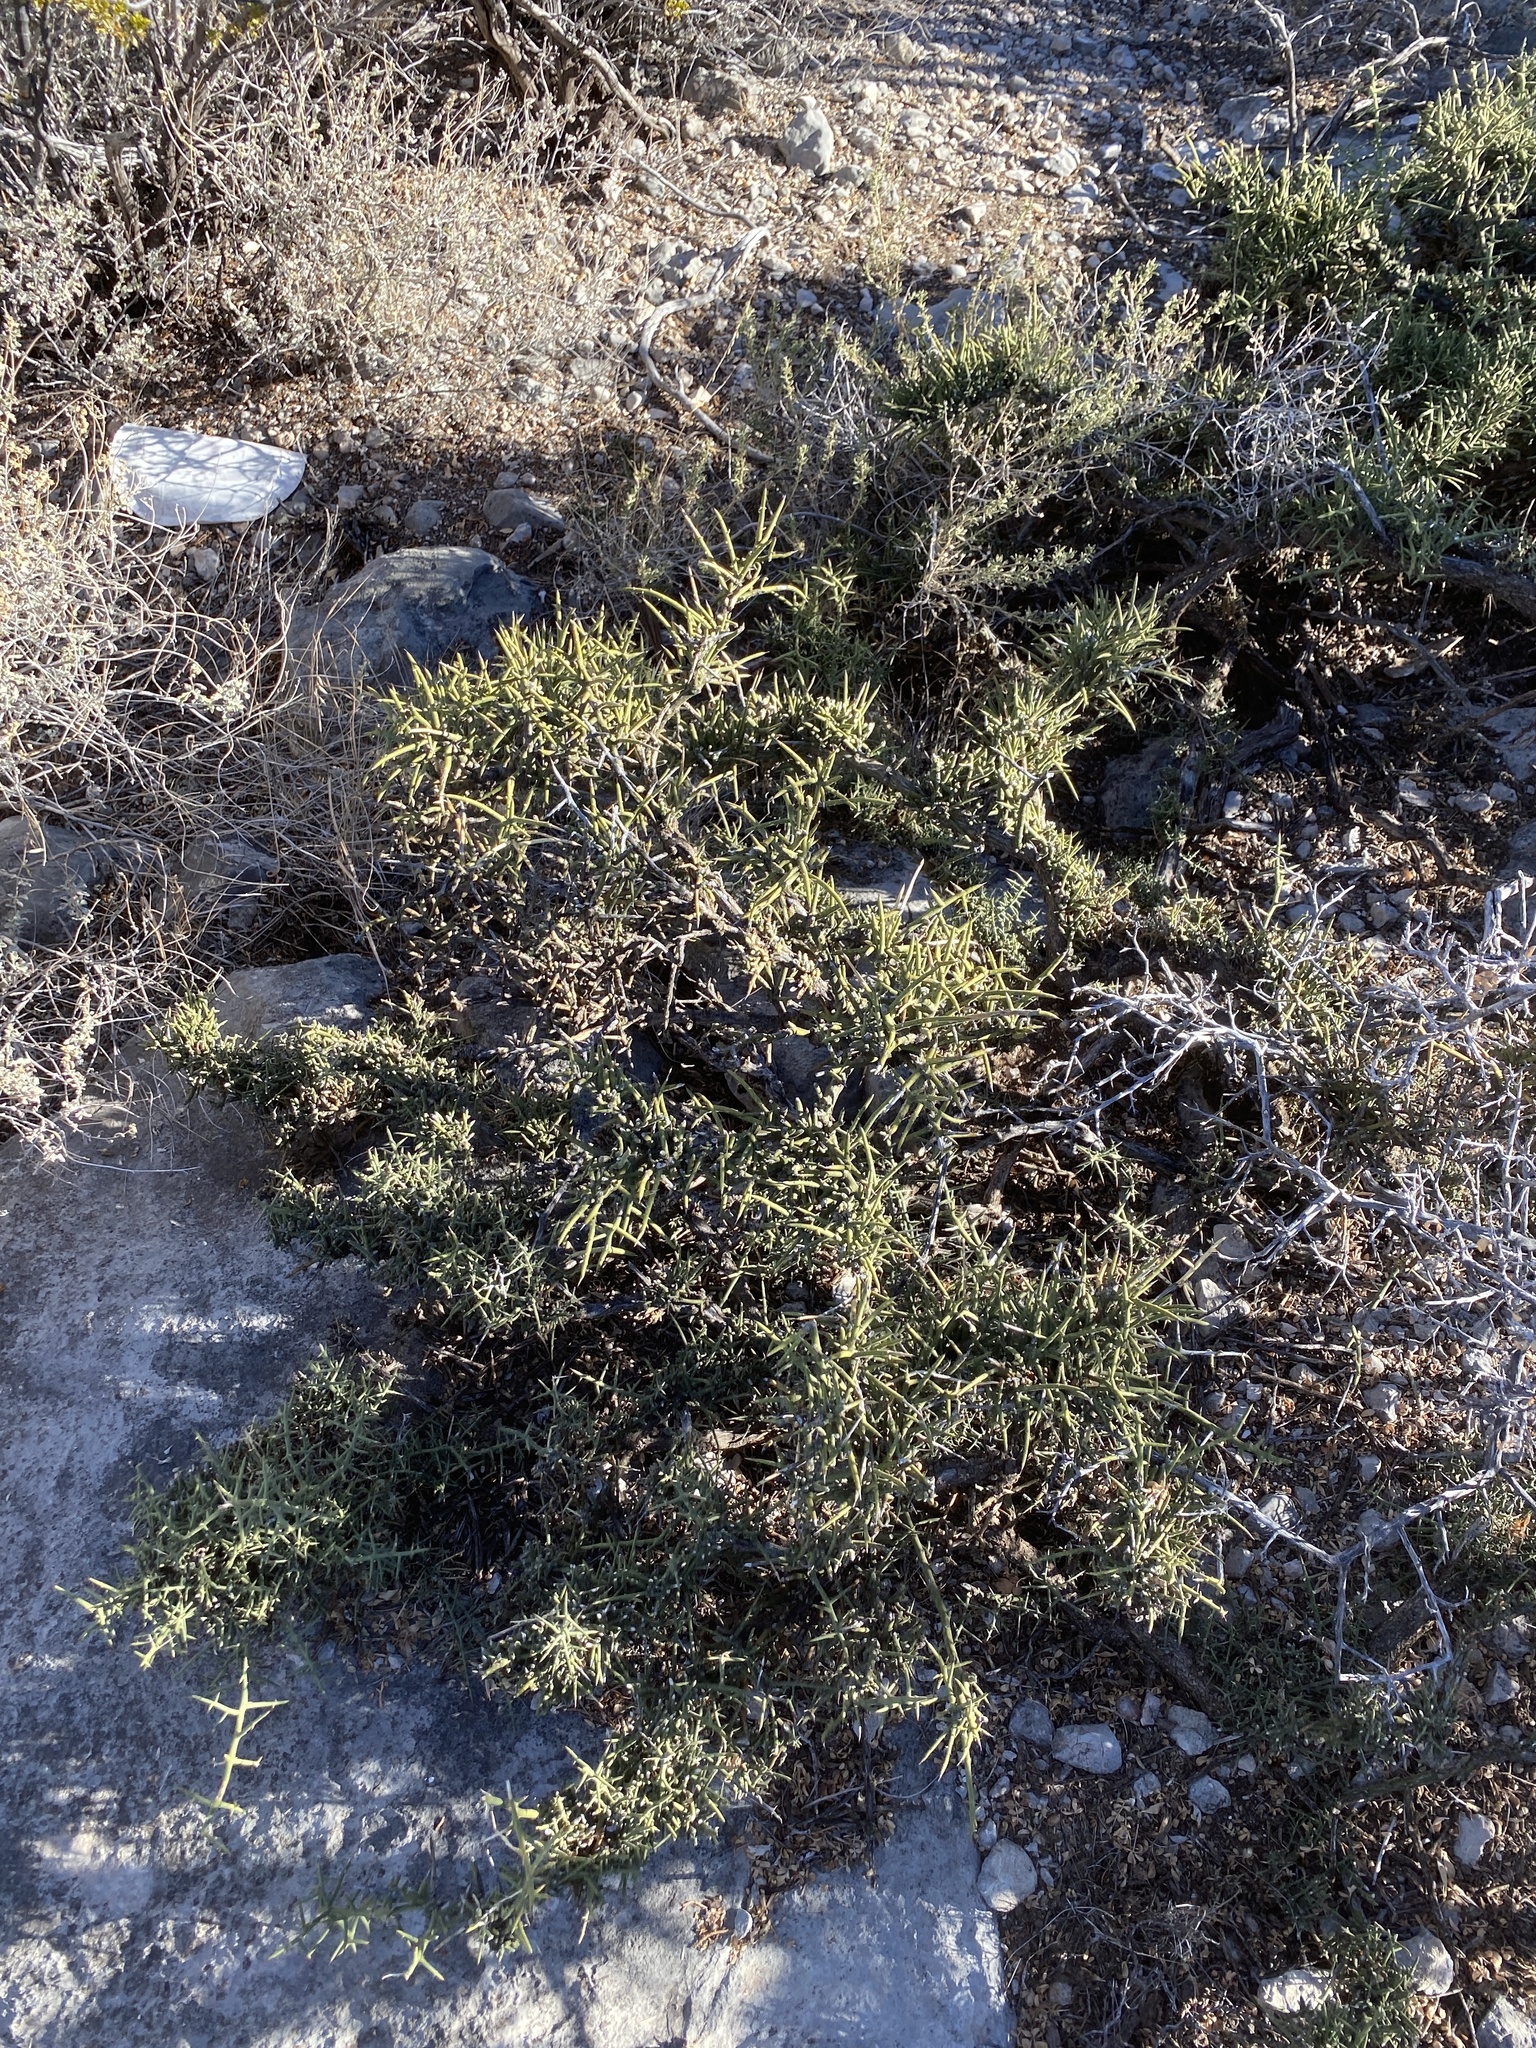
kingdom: Plantae
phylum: Tracheophyta
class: Magnoliopsida
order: Brassicales
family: Koeberliniaceae
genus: Koeberlinia
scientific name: Koeberlinia spinosa
